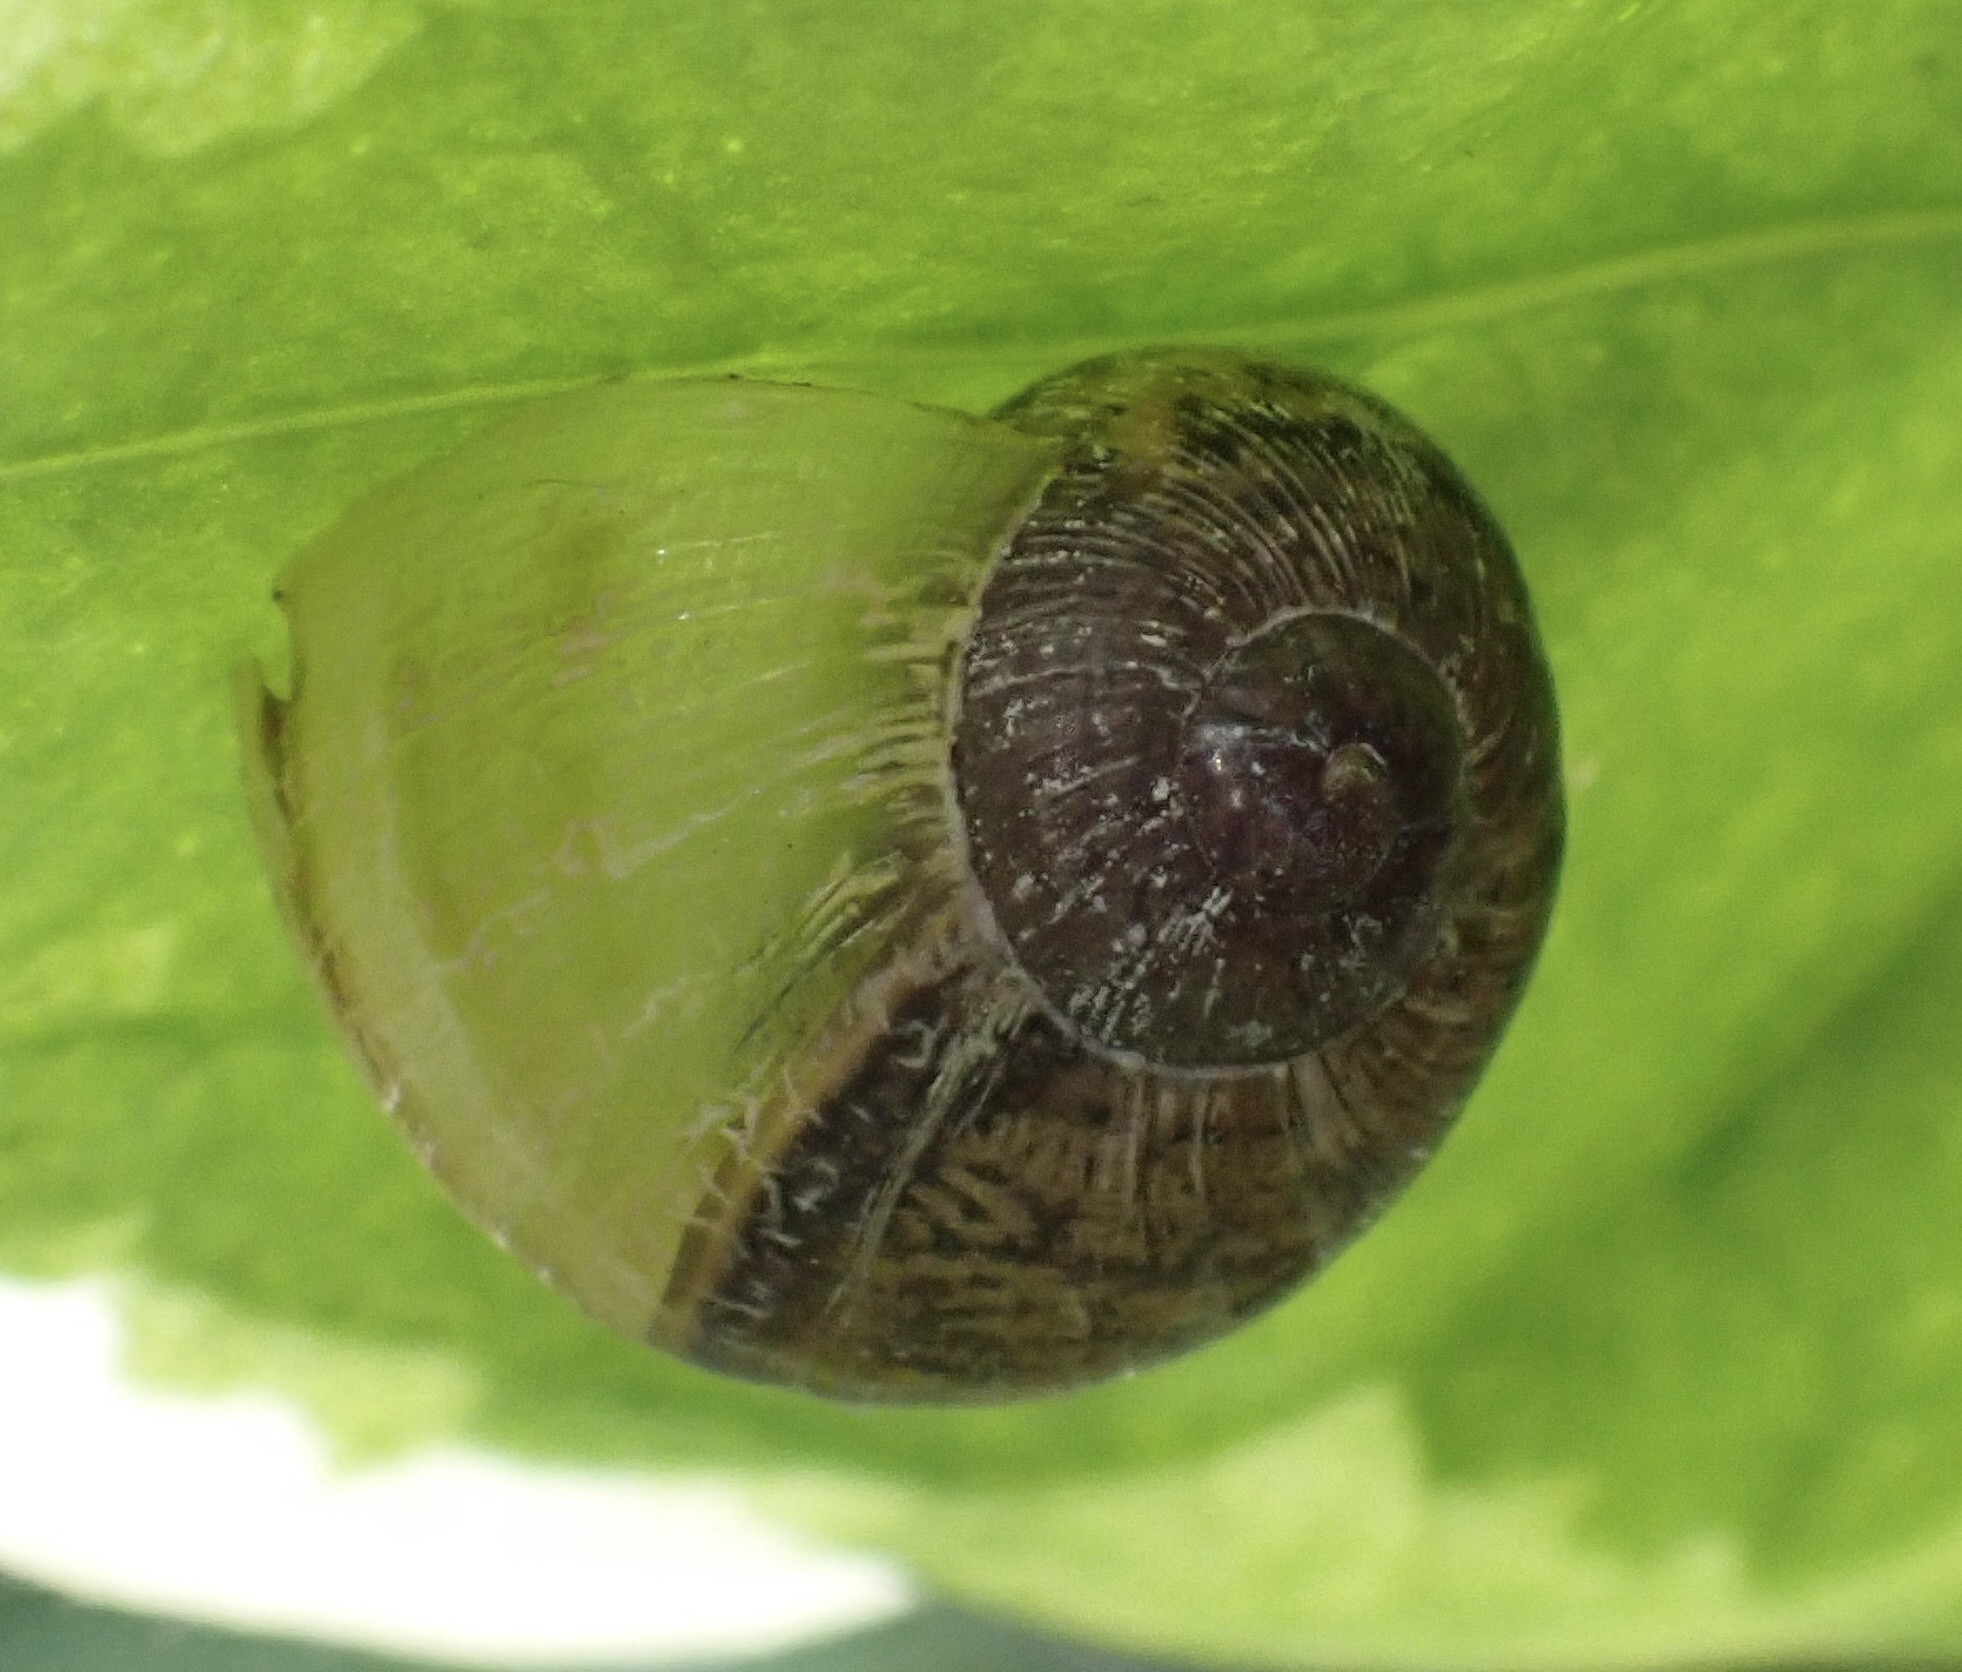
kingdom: Animalia
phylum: Mollusca
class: Gastropoda
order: Stylommatophora
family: Helicidae
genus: Cornu
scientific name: Cornu aspersum
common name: Brown garden snail
